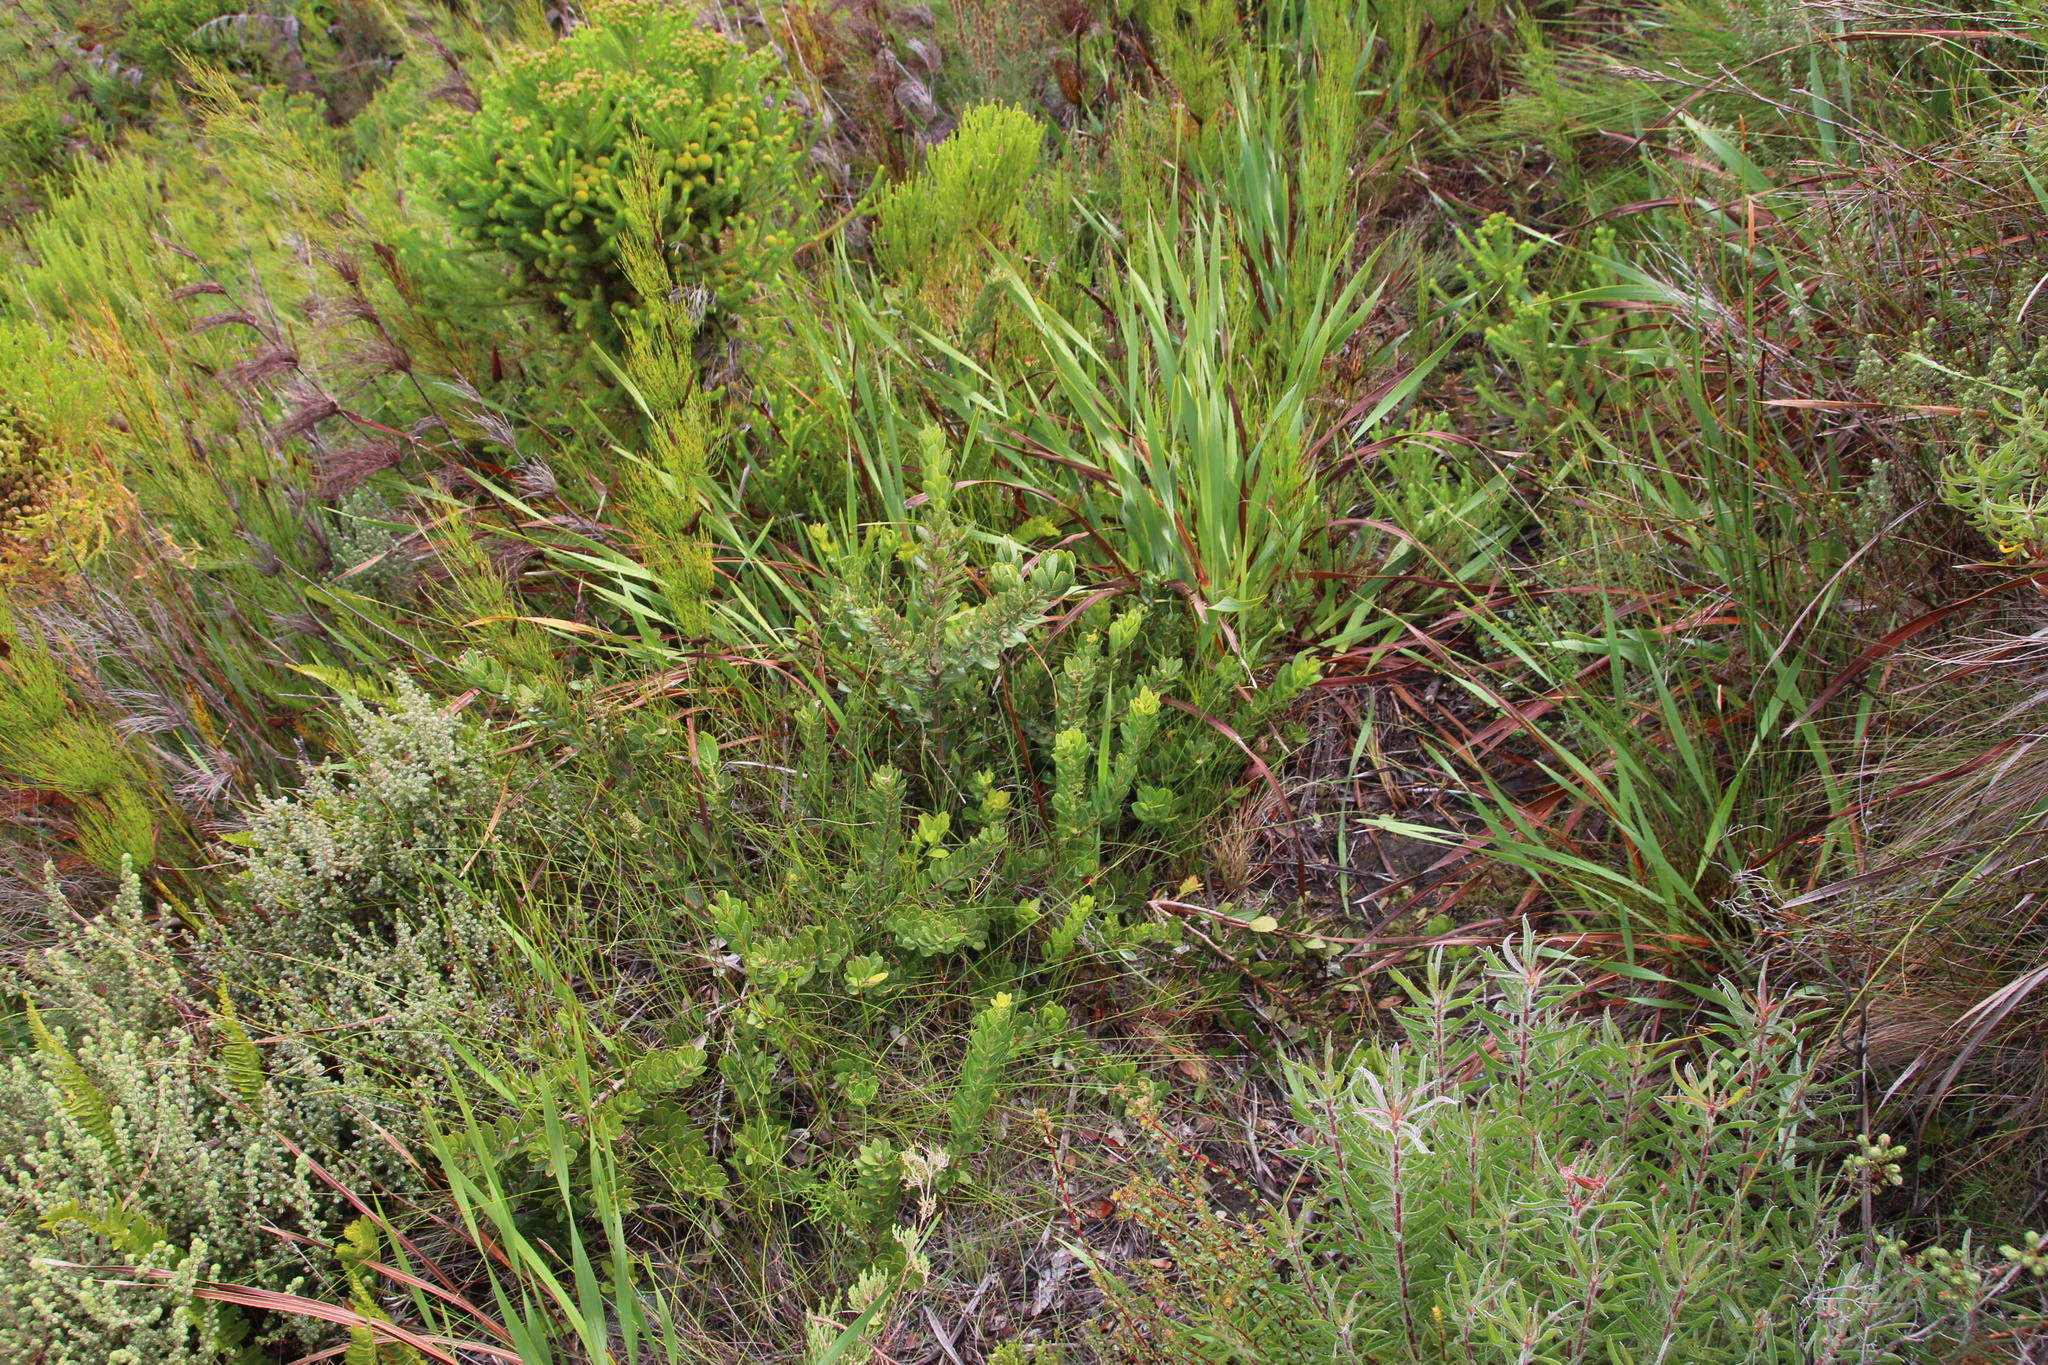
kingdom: Plantae
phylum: Tracheophyta
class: Magnoliopsida
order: Fagales
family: Myricaceae
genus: Morella
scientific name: Morella humilis
